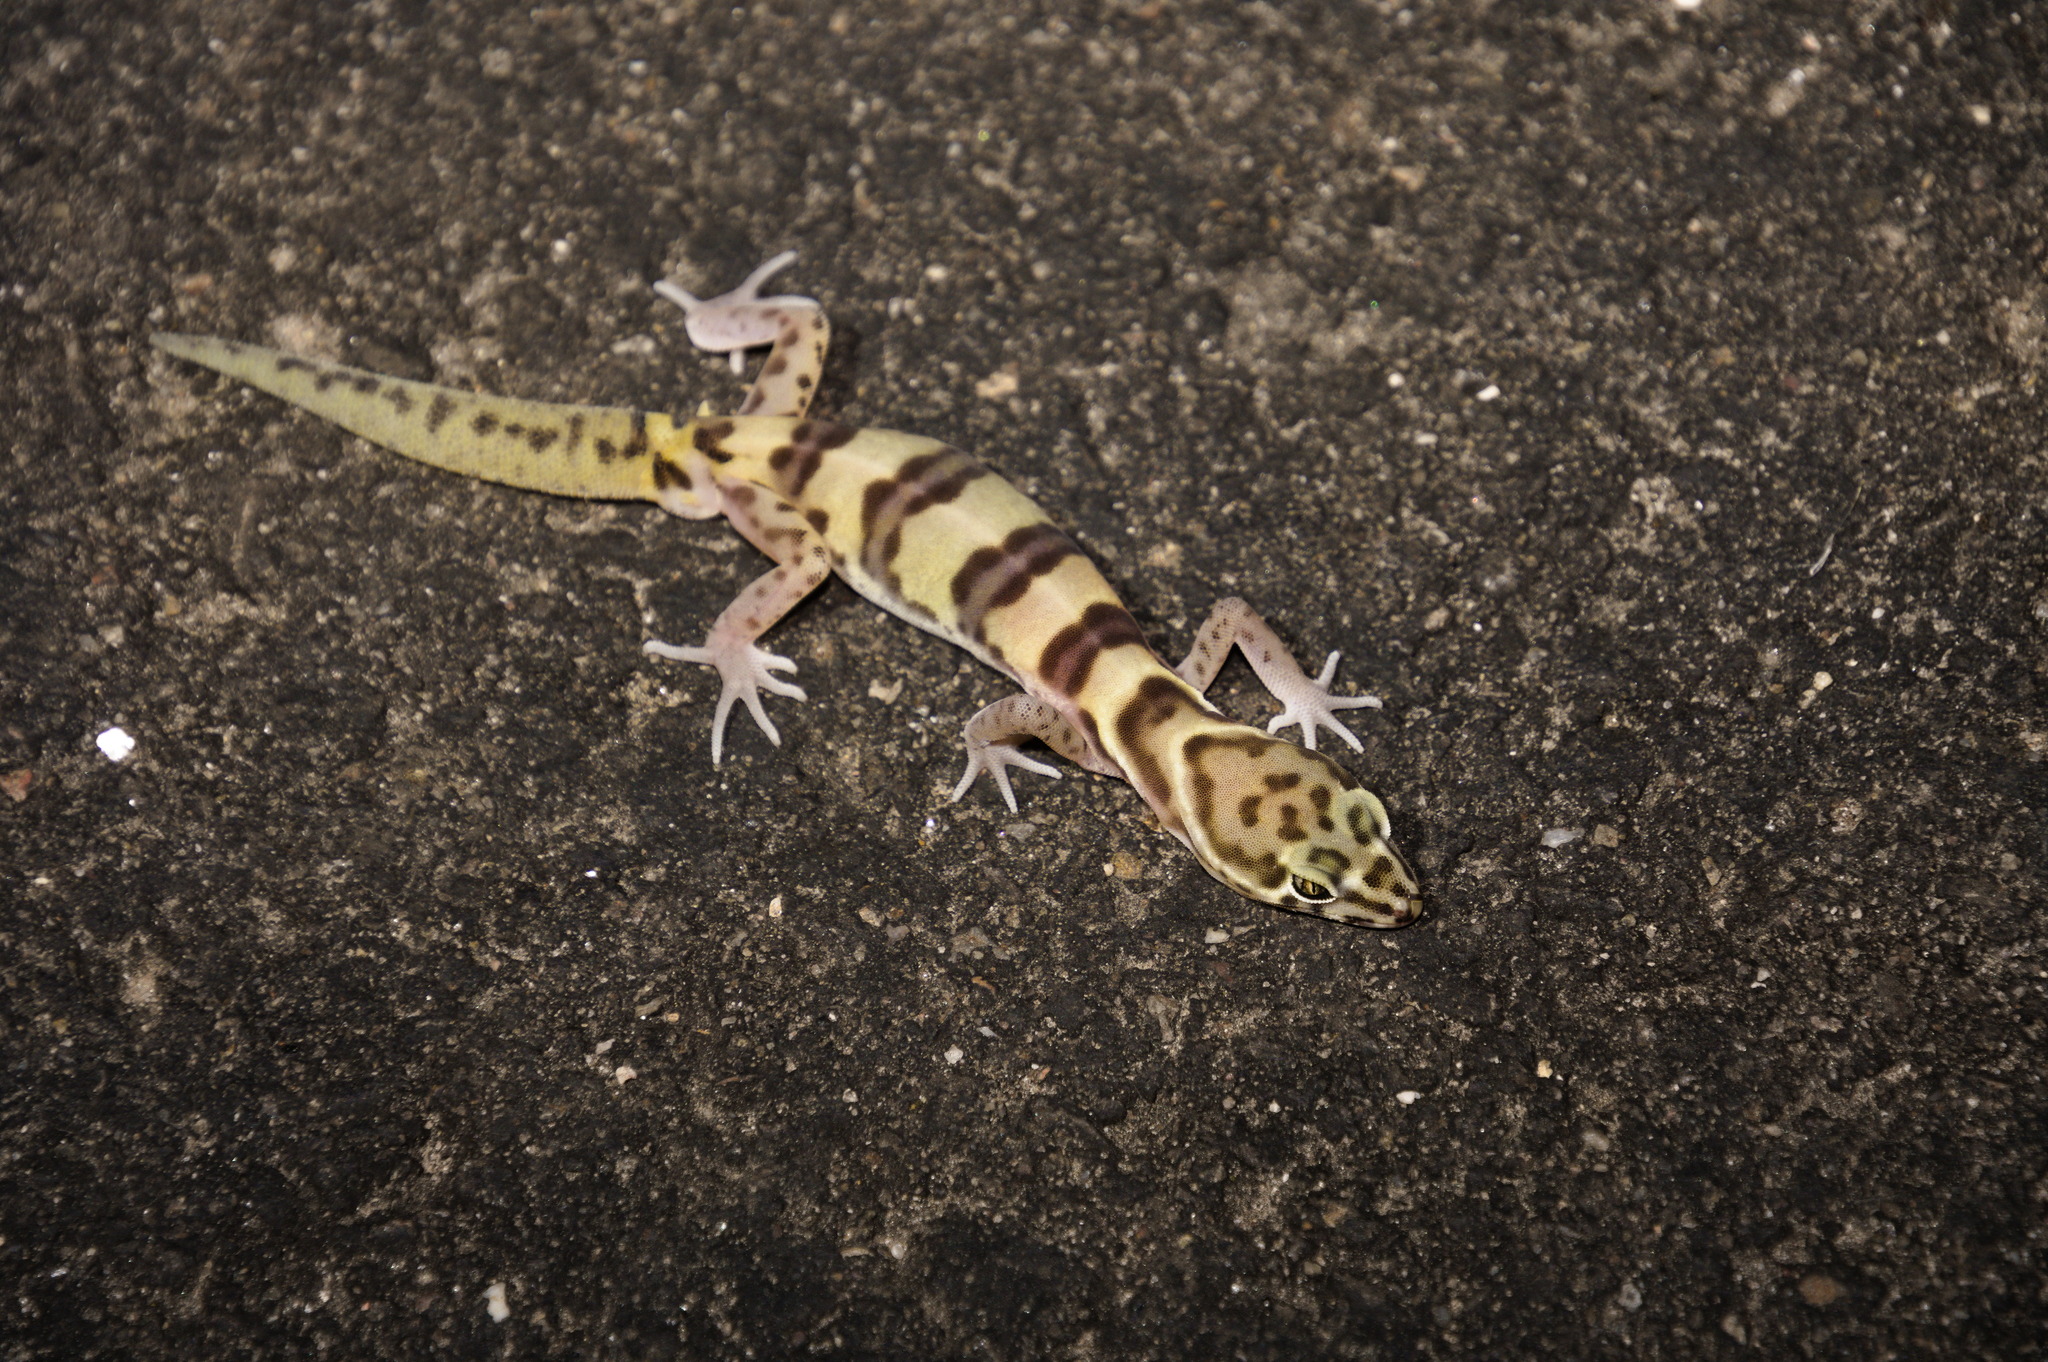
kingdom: Animalia
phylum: Chordata
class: Squamata
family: Eublepharidae
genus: Coleonyx
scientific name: Coleonyx variegatus
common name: Western banded gecko
